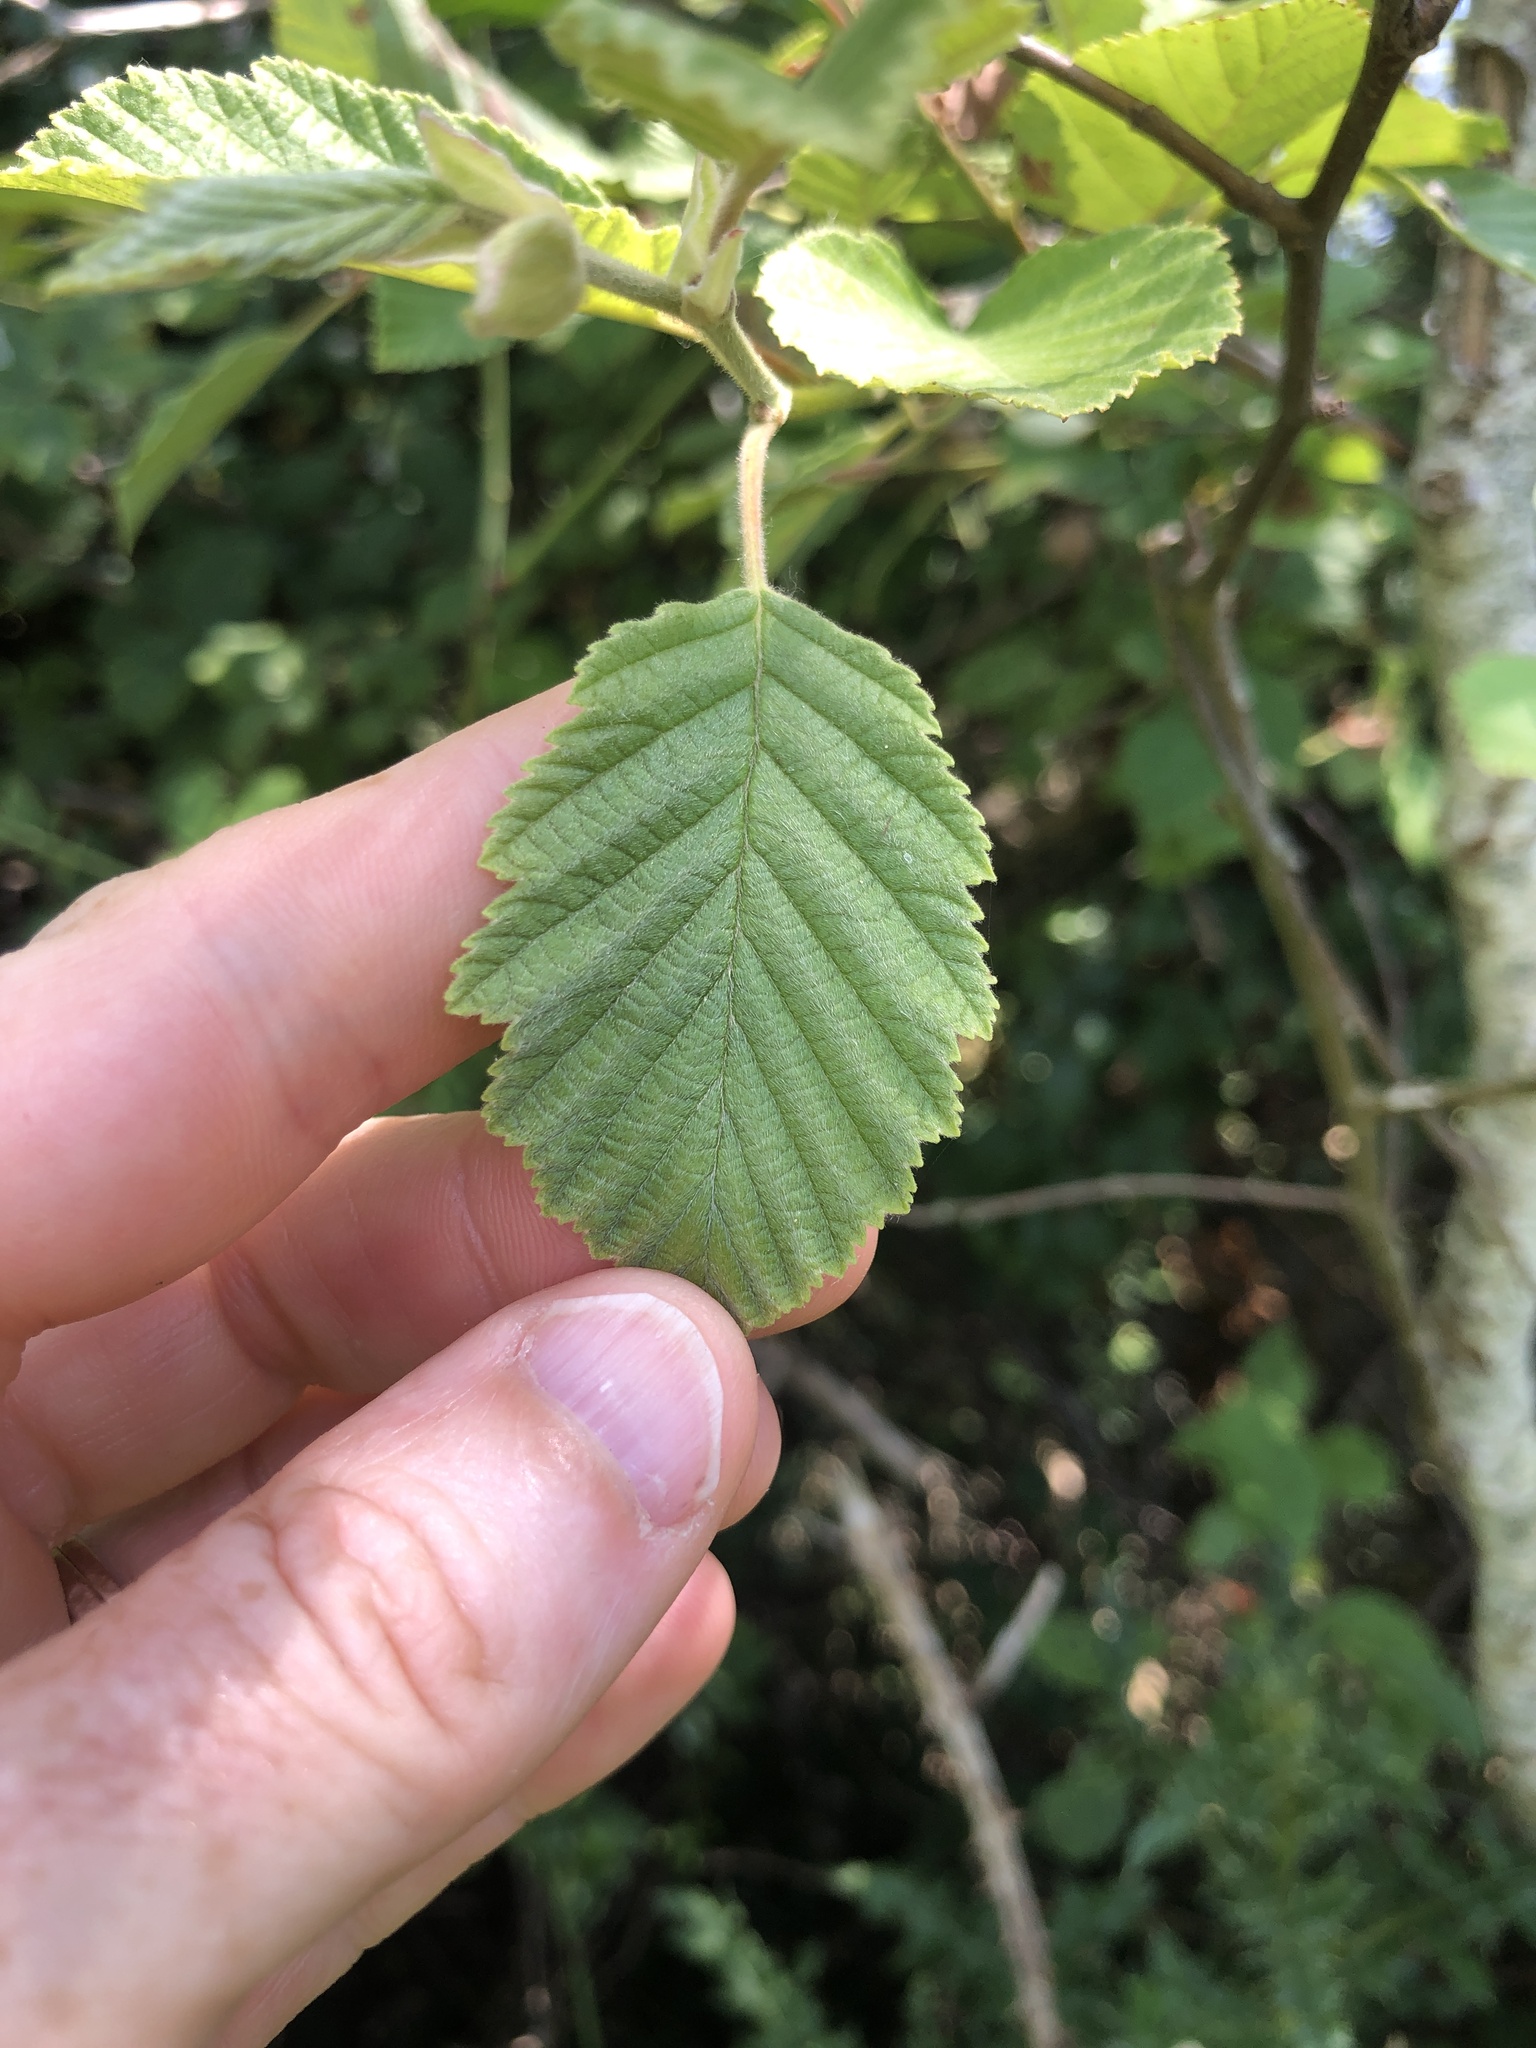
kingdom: Plantae
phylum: Tracheophyta
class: Magnoliopsida
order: Fagales
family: Betulaceae
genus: Alnus
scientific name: Alnus incana
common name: Grey alder
